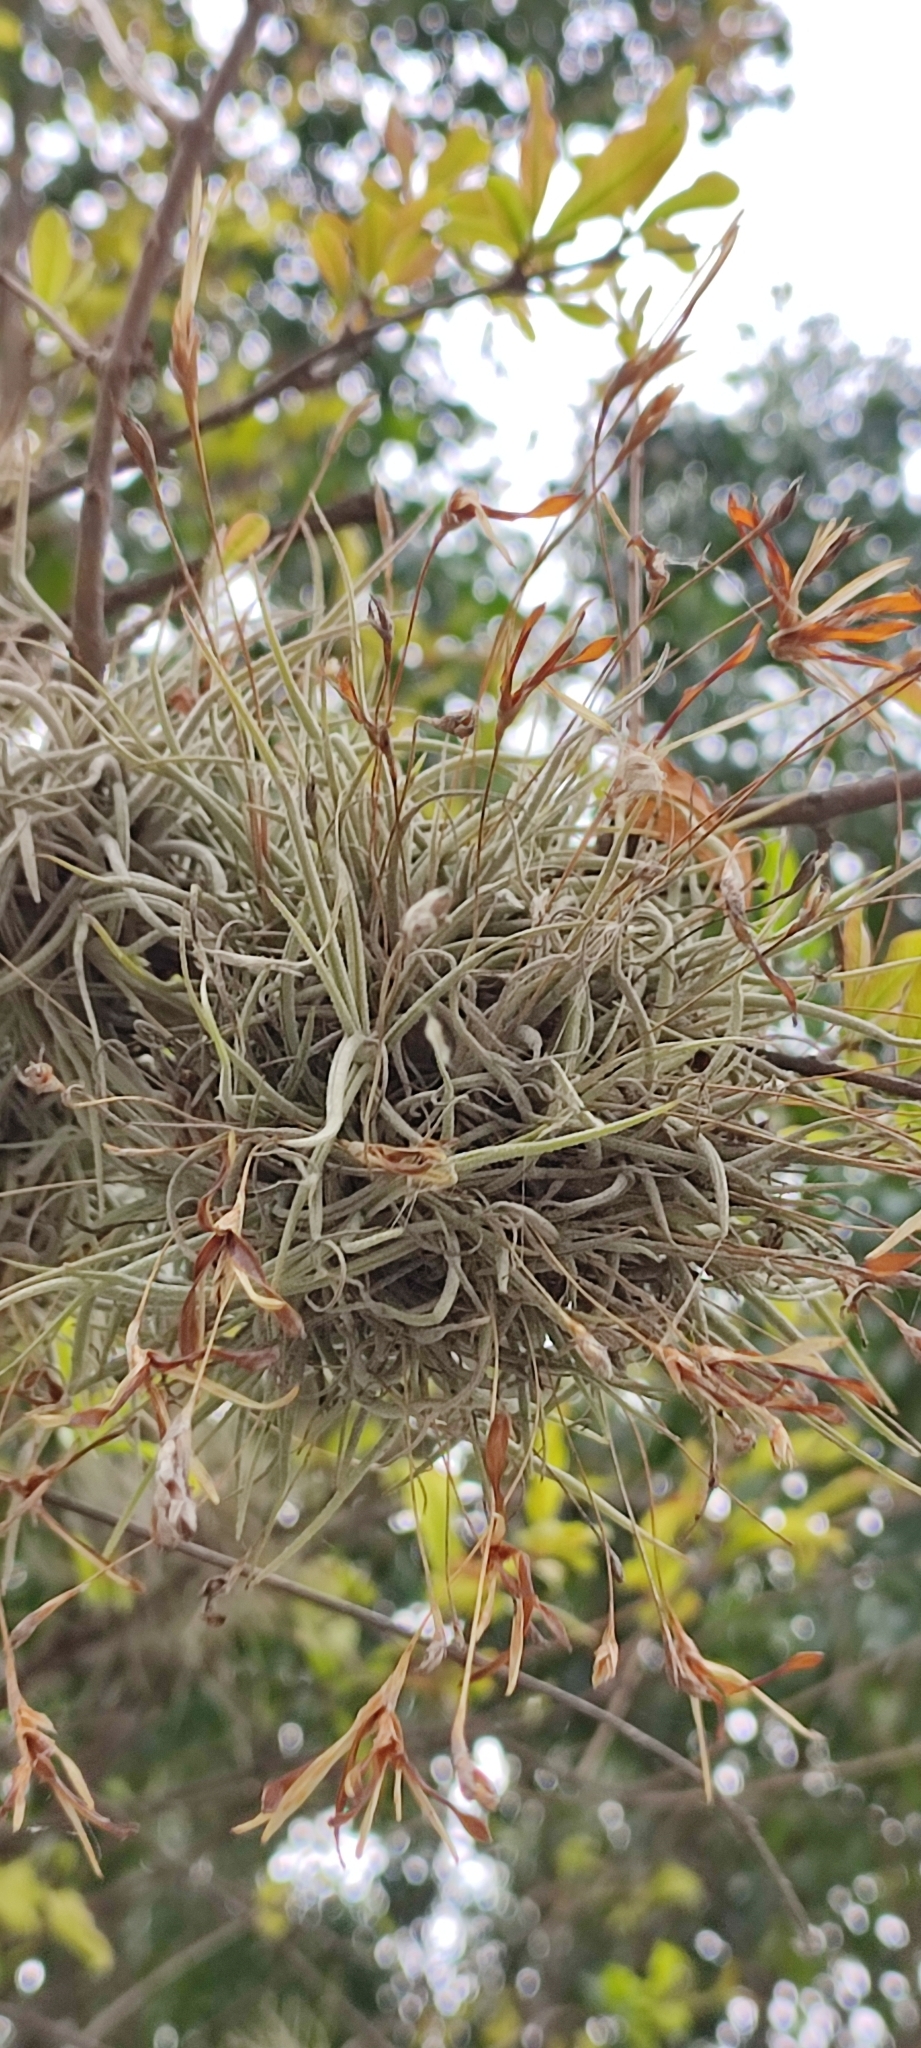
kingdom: Plantae
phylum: Tracheophyta
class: Liliopsida
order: Poales
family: Bromeliaceae
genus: Tillandsia
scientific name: Tillandsia recurvata
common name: Small ballmoss
